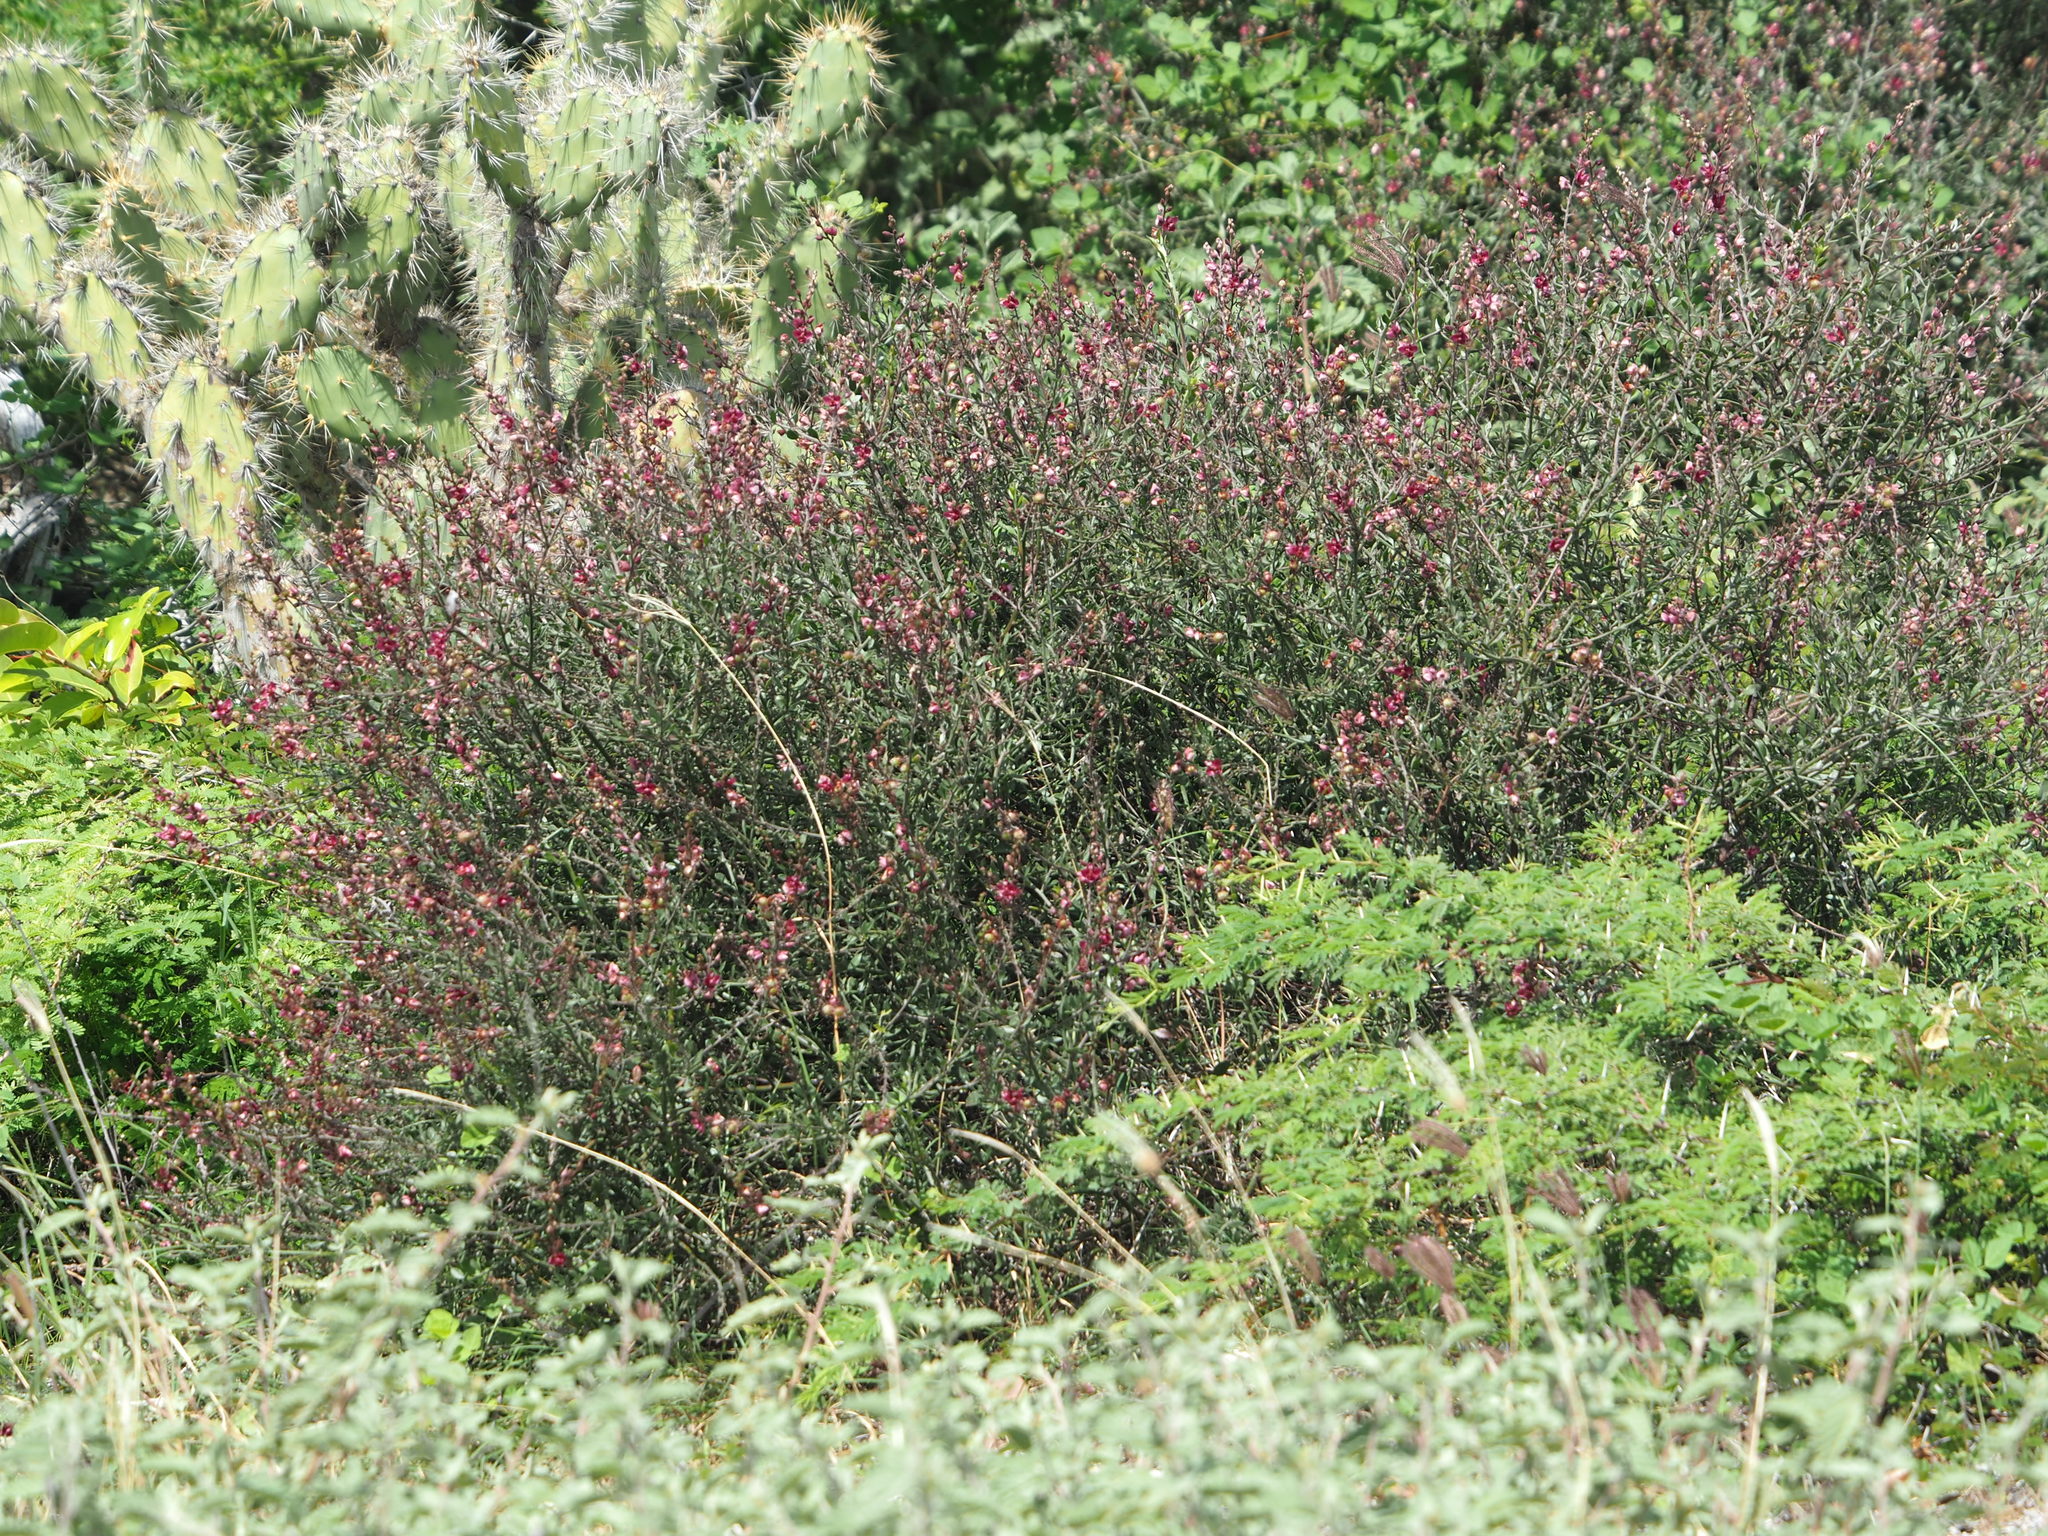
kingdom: Plantae
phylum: Tracheophyta
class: Magnoliopsida
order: Zygophyllales
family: Krameriaceae
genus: Krameria
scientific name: Krameria ixine
